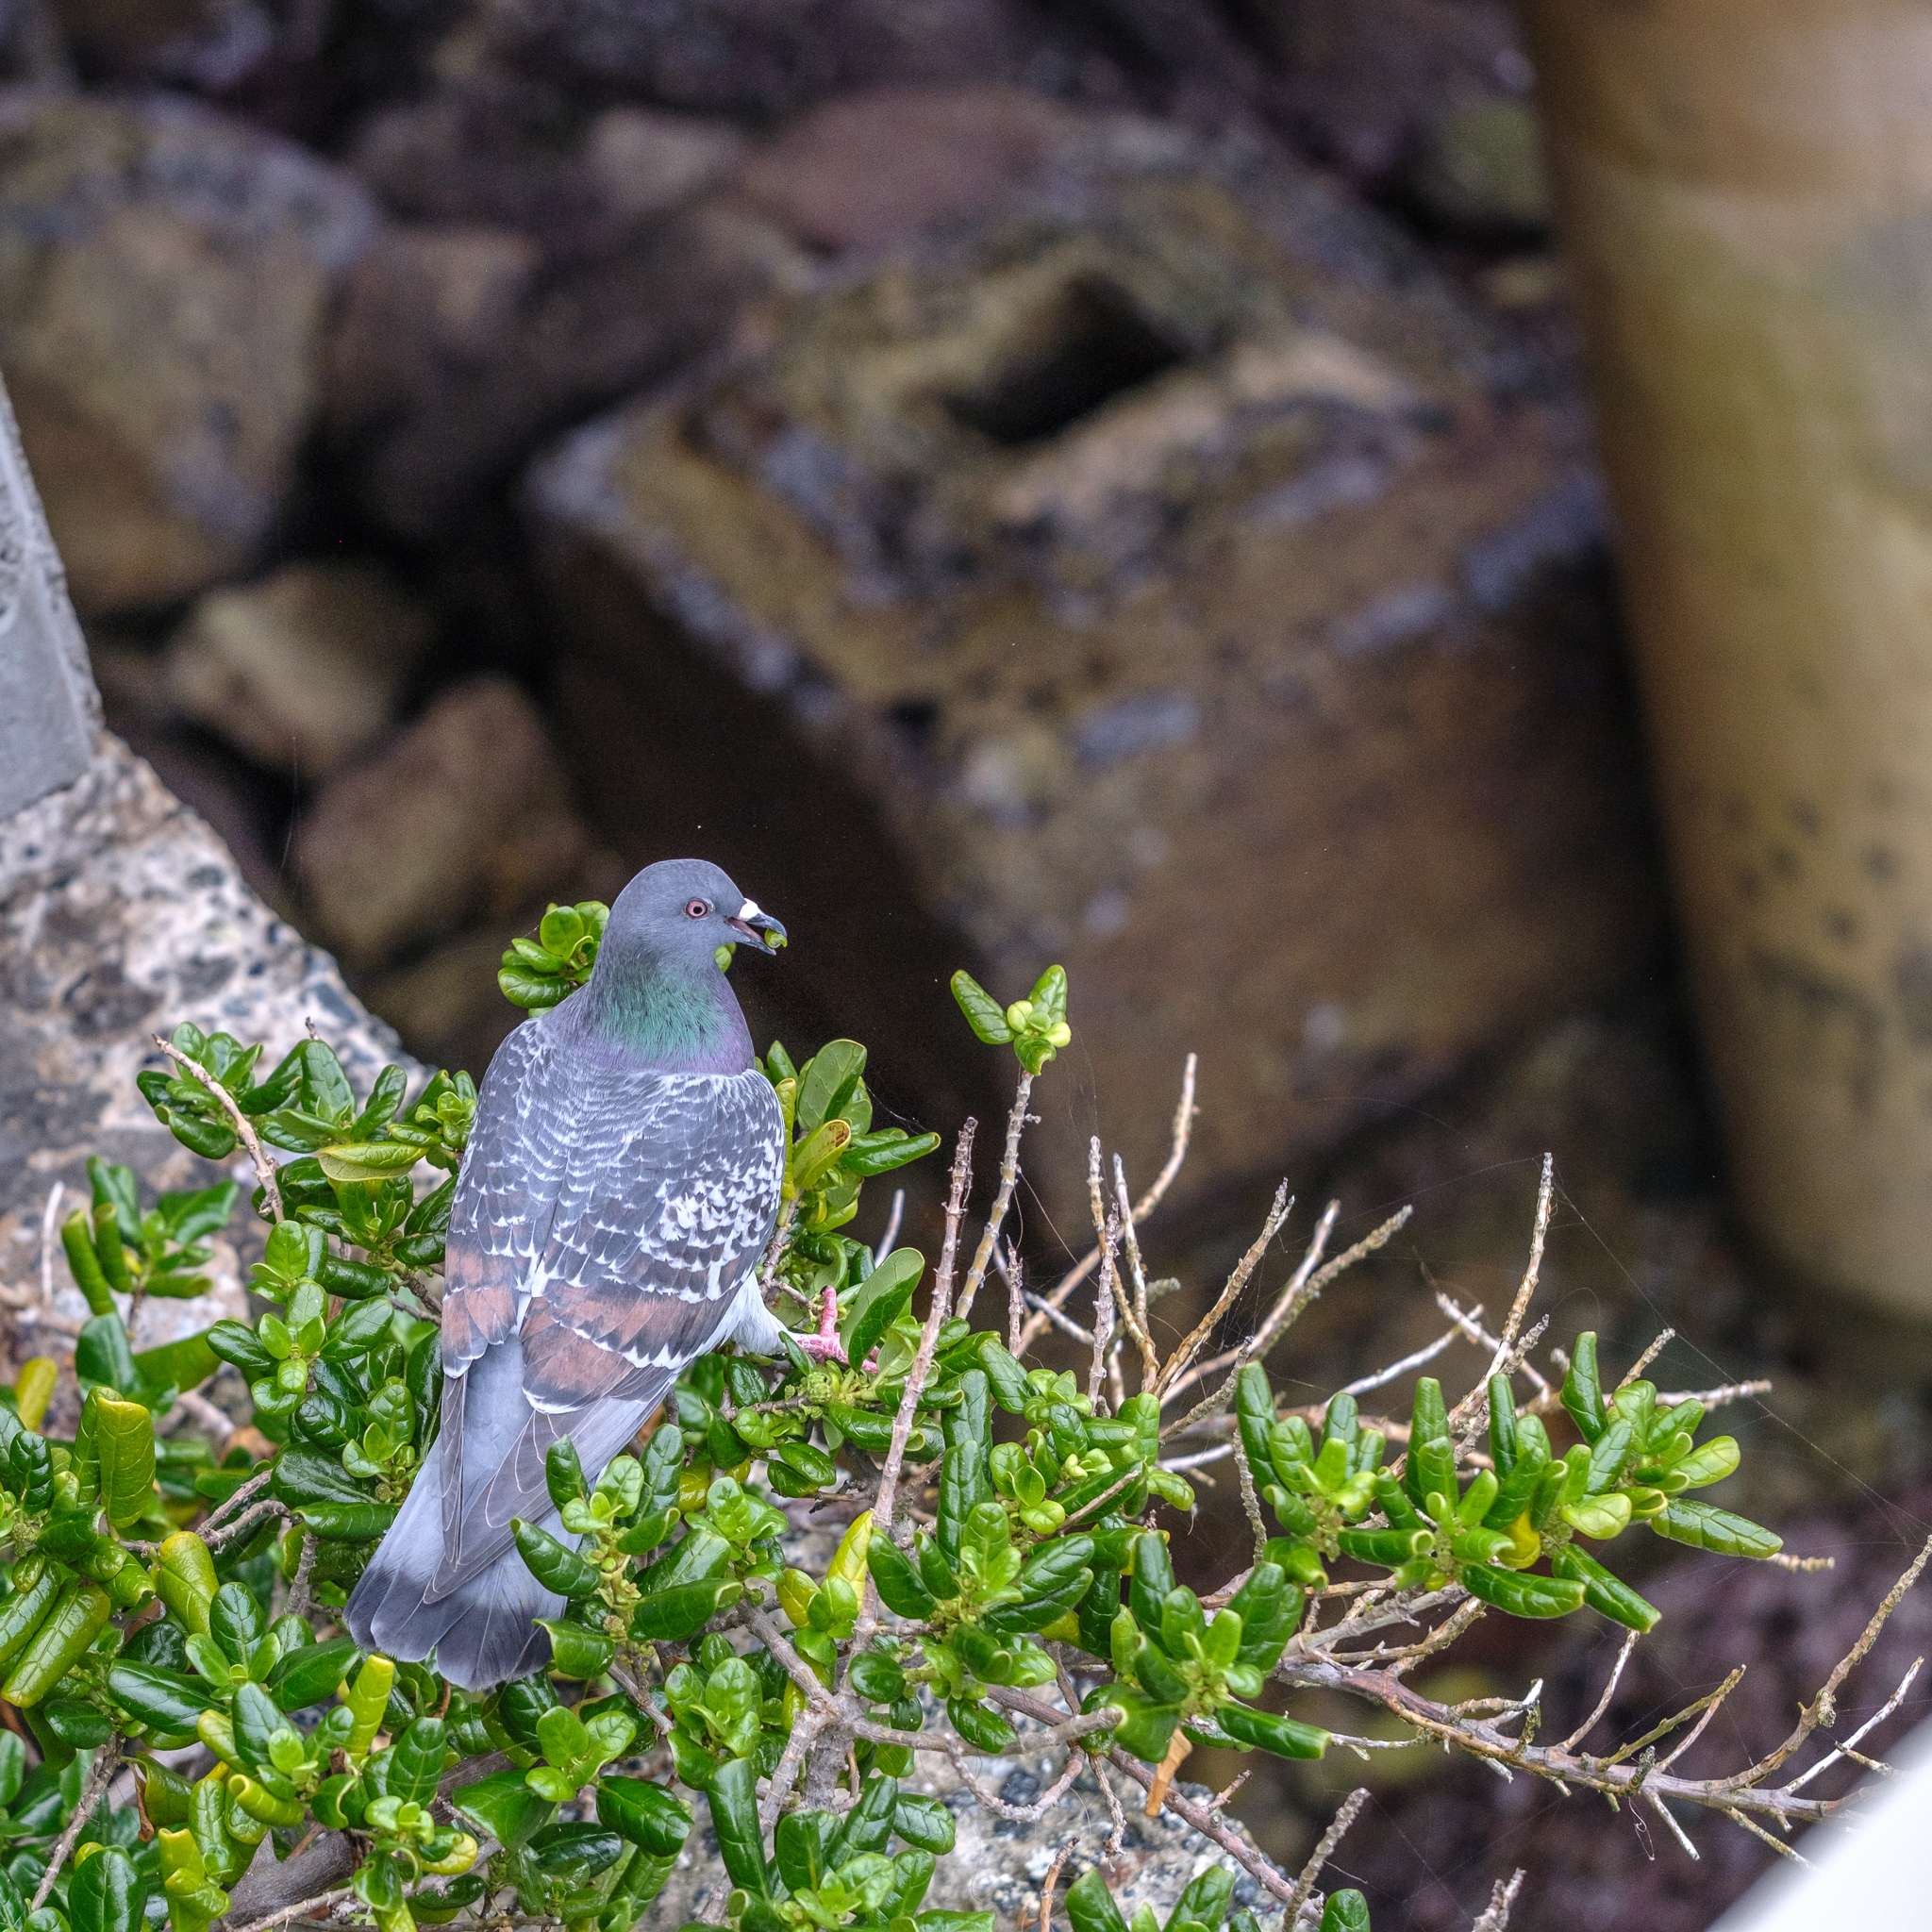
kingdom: Animalia
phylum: Chordata
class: Aves
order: Columbiformes
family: Columbidae
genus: Columba
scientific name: Columba livia
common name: Rock pigeon
